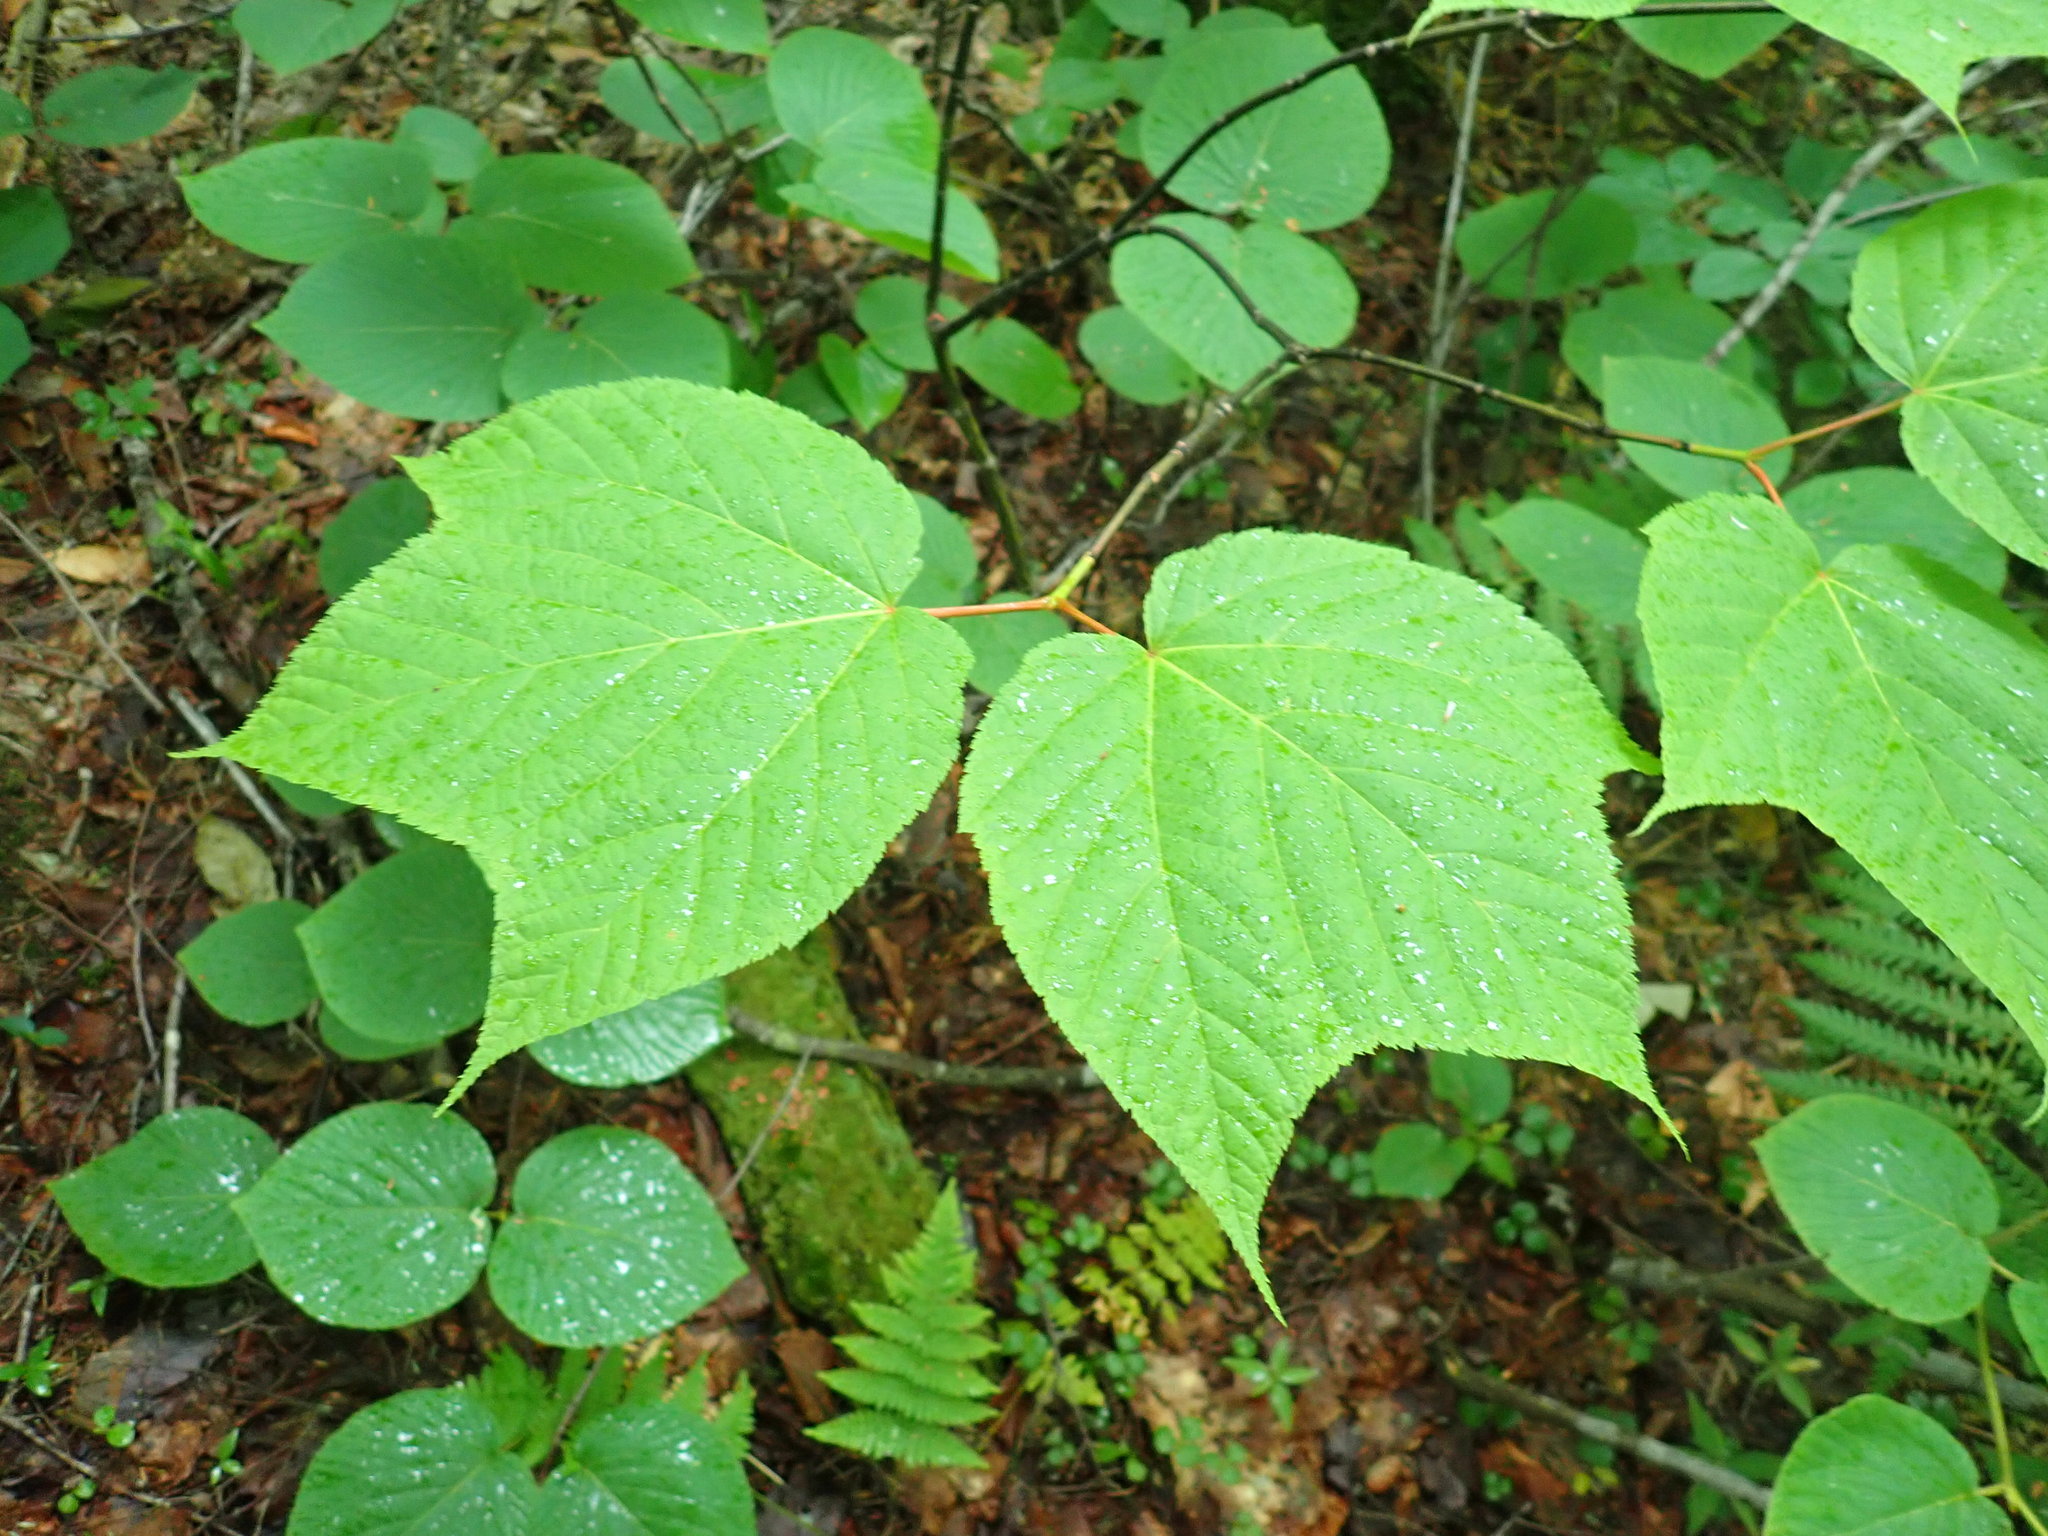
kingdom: Plantae
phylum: Tracheophyta
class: Magnoliopsida
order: Sapindales
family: Sapindaceae
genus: Acer
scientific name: Acer pensylvanicum
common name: Moosewood
